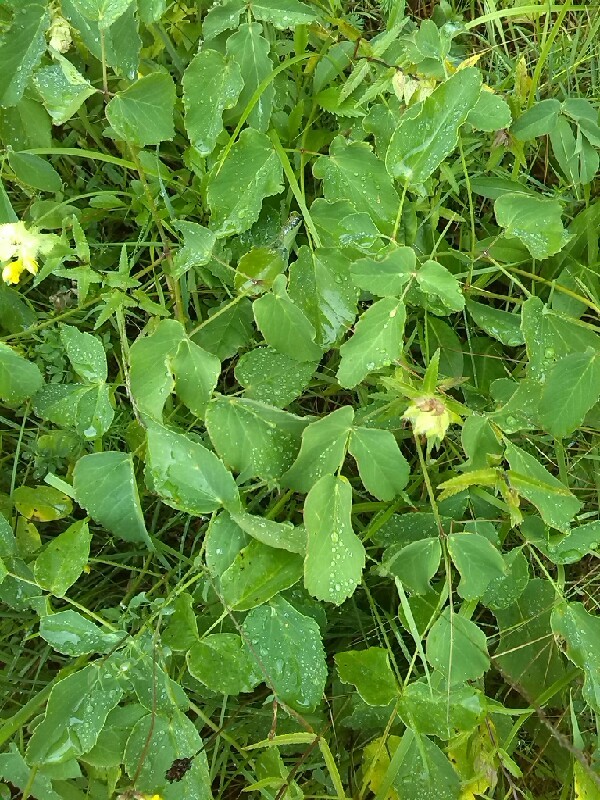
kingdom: Plantae
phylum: Tracheophyta
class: Magnoliopsida
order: Apiales
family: Apiaceae
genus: Laserpitium
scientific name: Laserpitium latifolium
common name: Broadleaf sermountain
